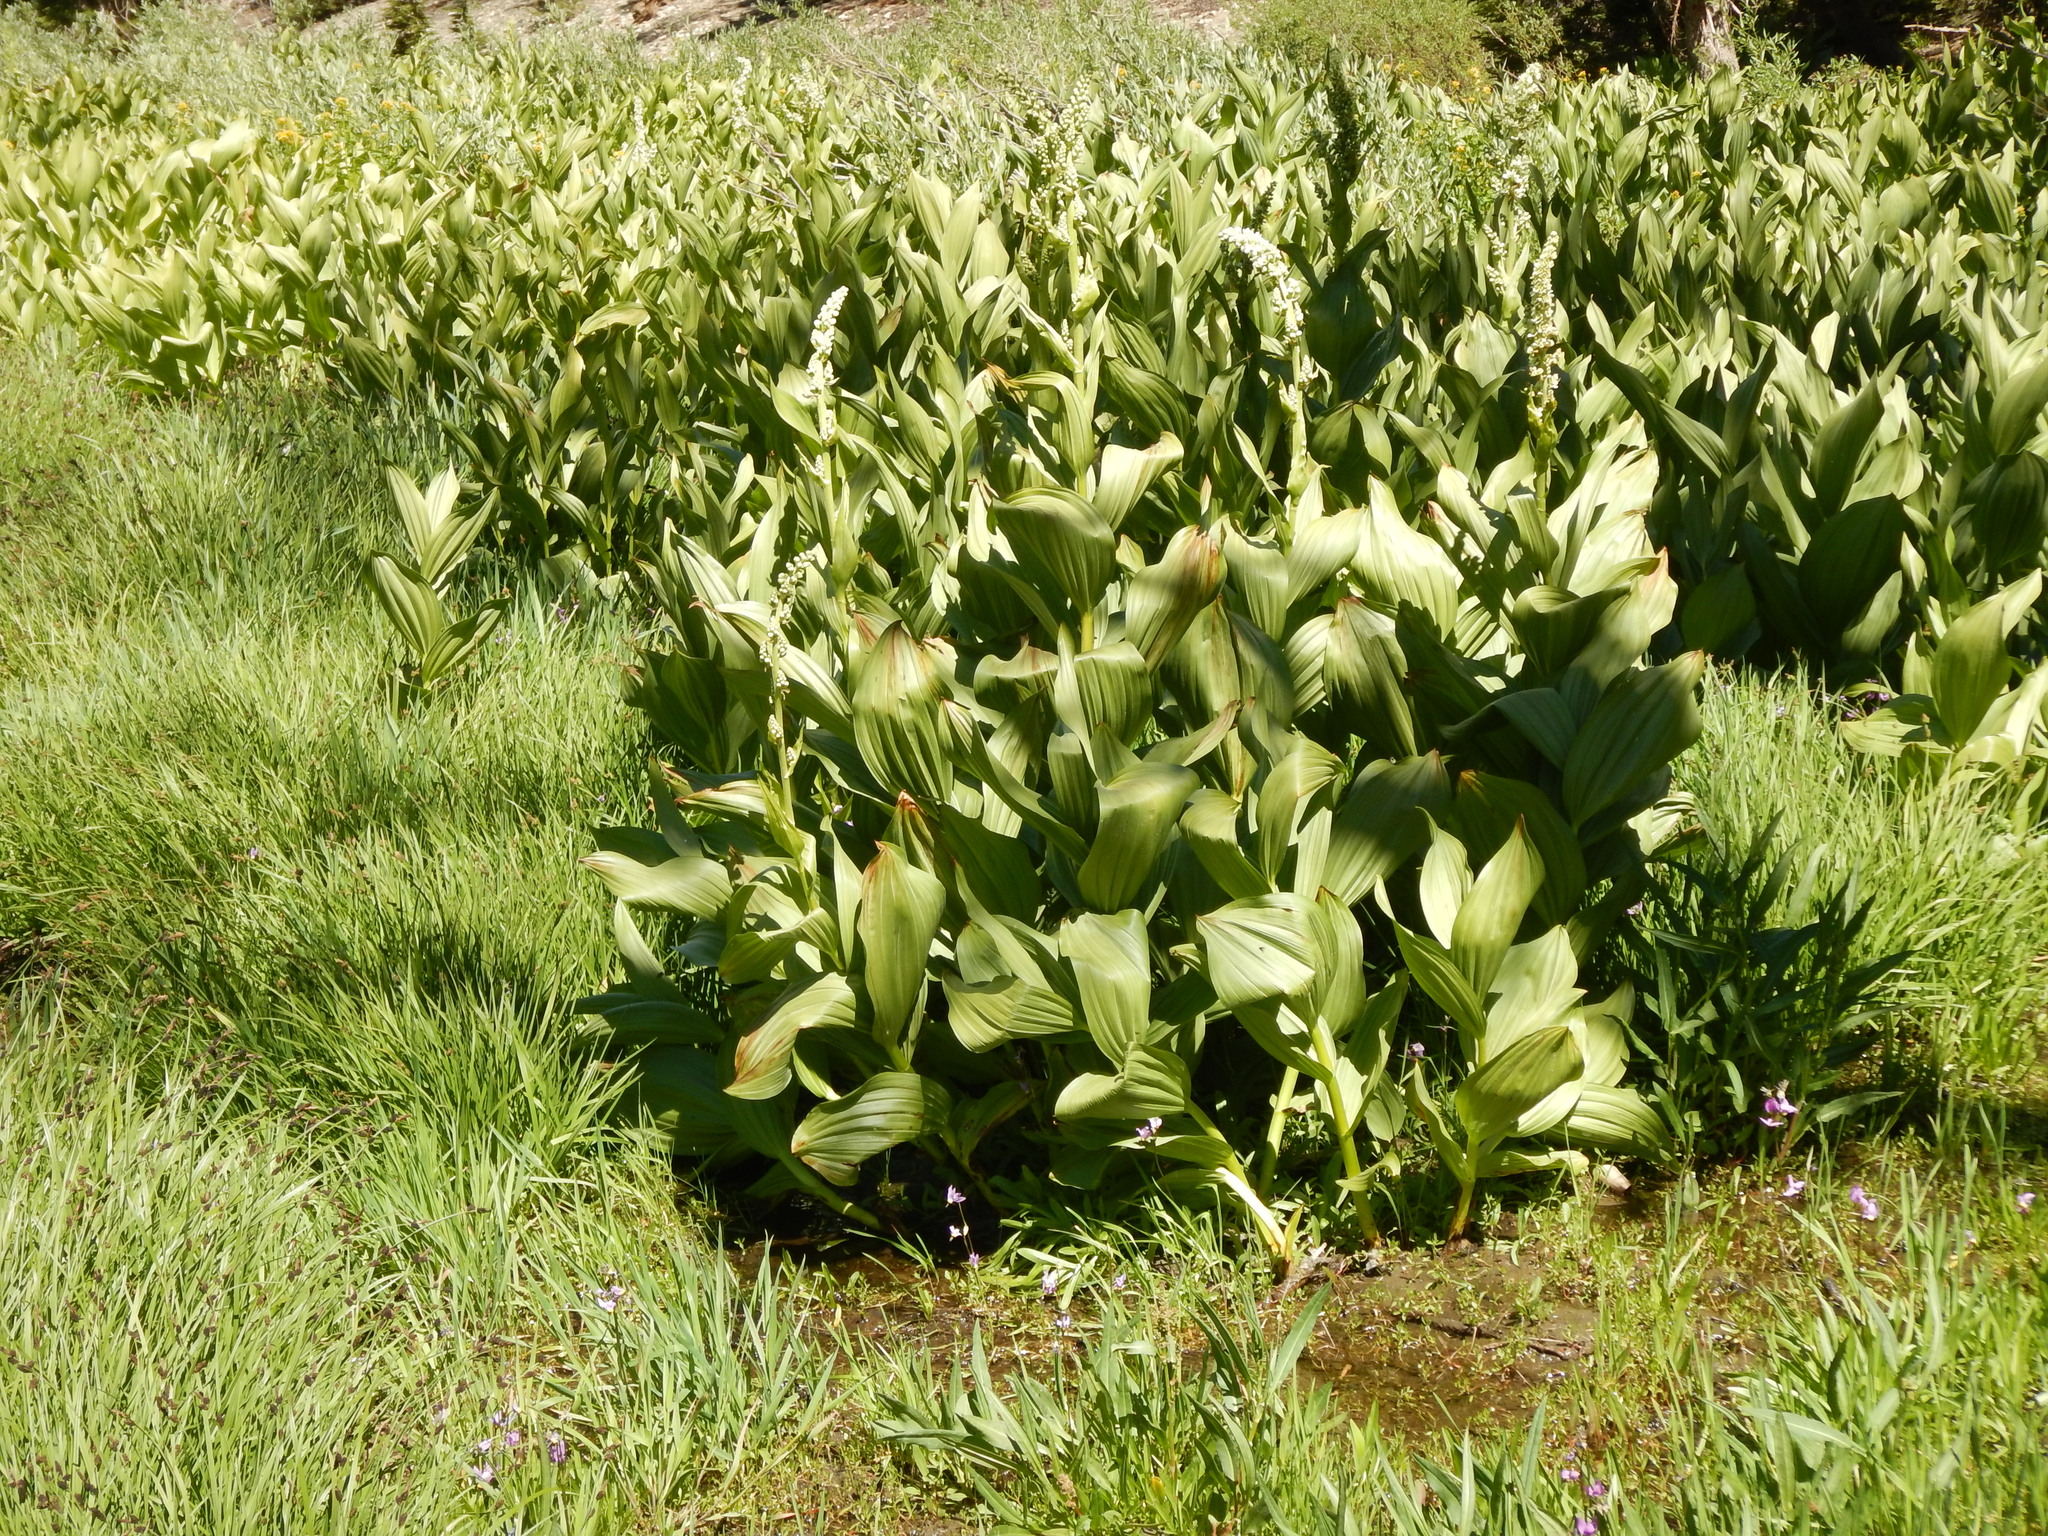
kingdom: Plantae
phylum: Tracheophyta
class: Liliopsida
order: Liliales
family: Melanthiaceae
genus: Veratrum
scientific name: Veratrum californicum
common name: California veratrum
